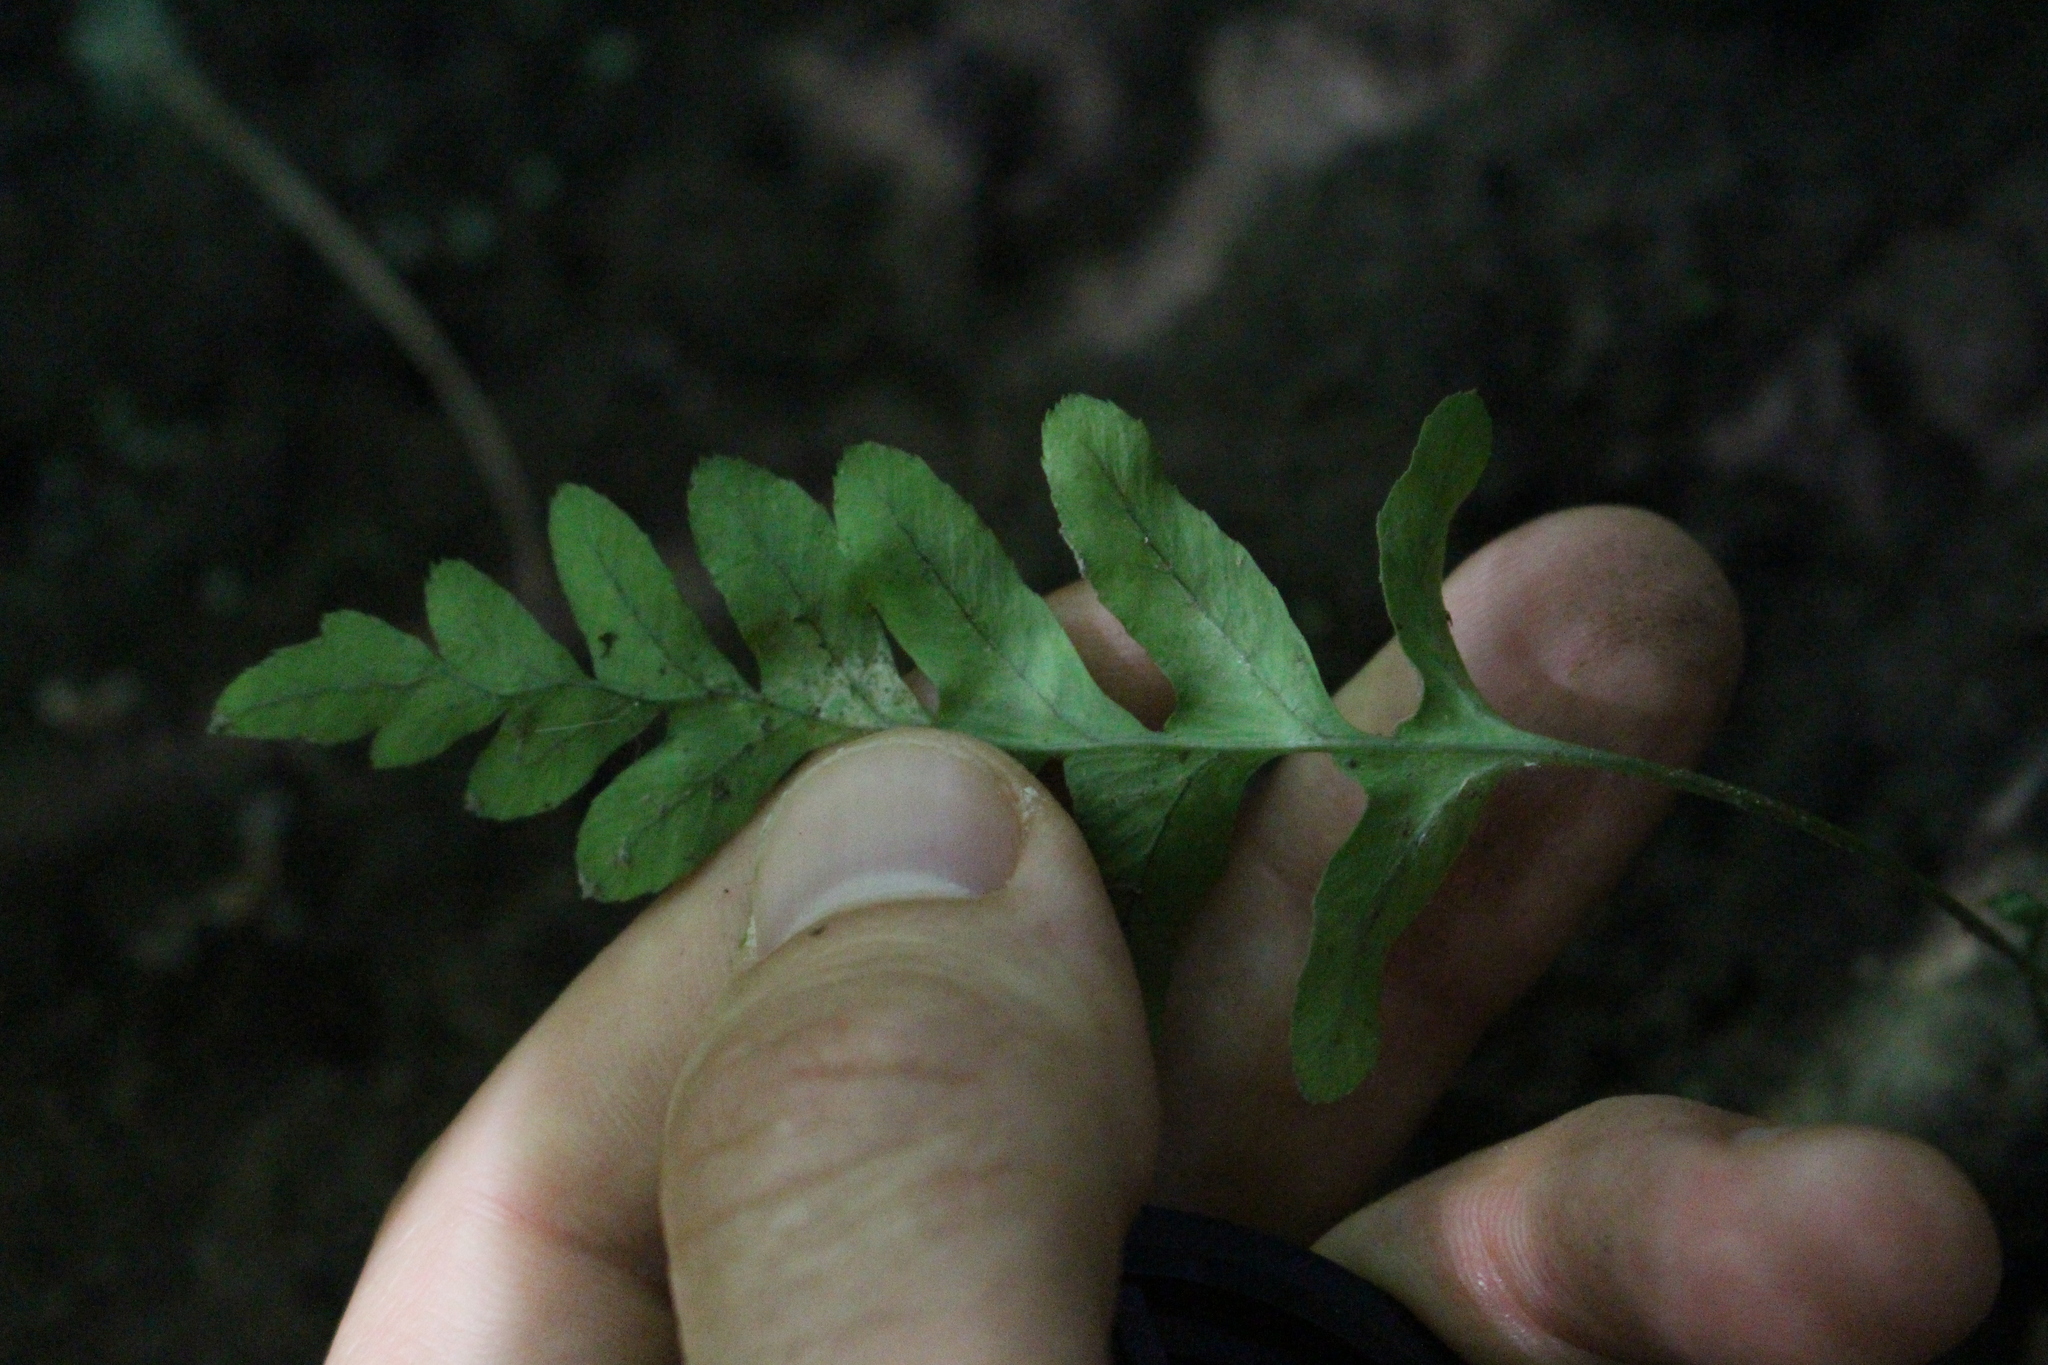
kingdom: Plantae
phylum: Tracheophyta
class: Polypodiopsida
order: Polypodiales
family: Polypodiaceae
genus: Polypodium
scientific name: Polypodium vulgare
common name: Common polypody
